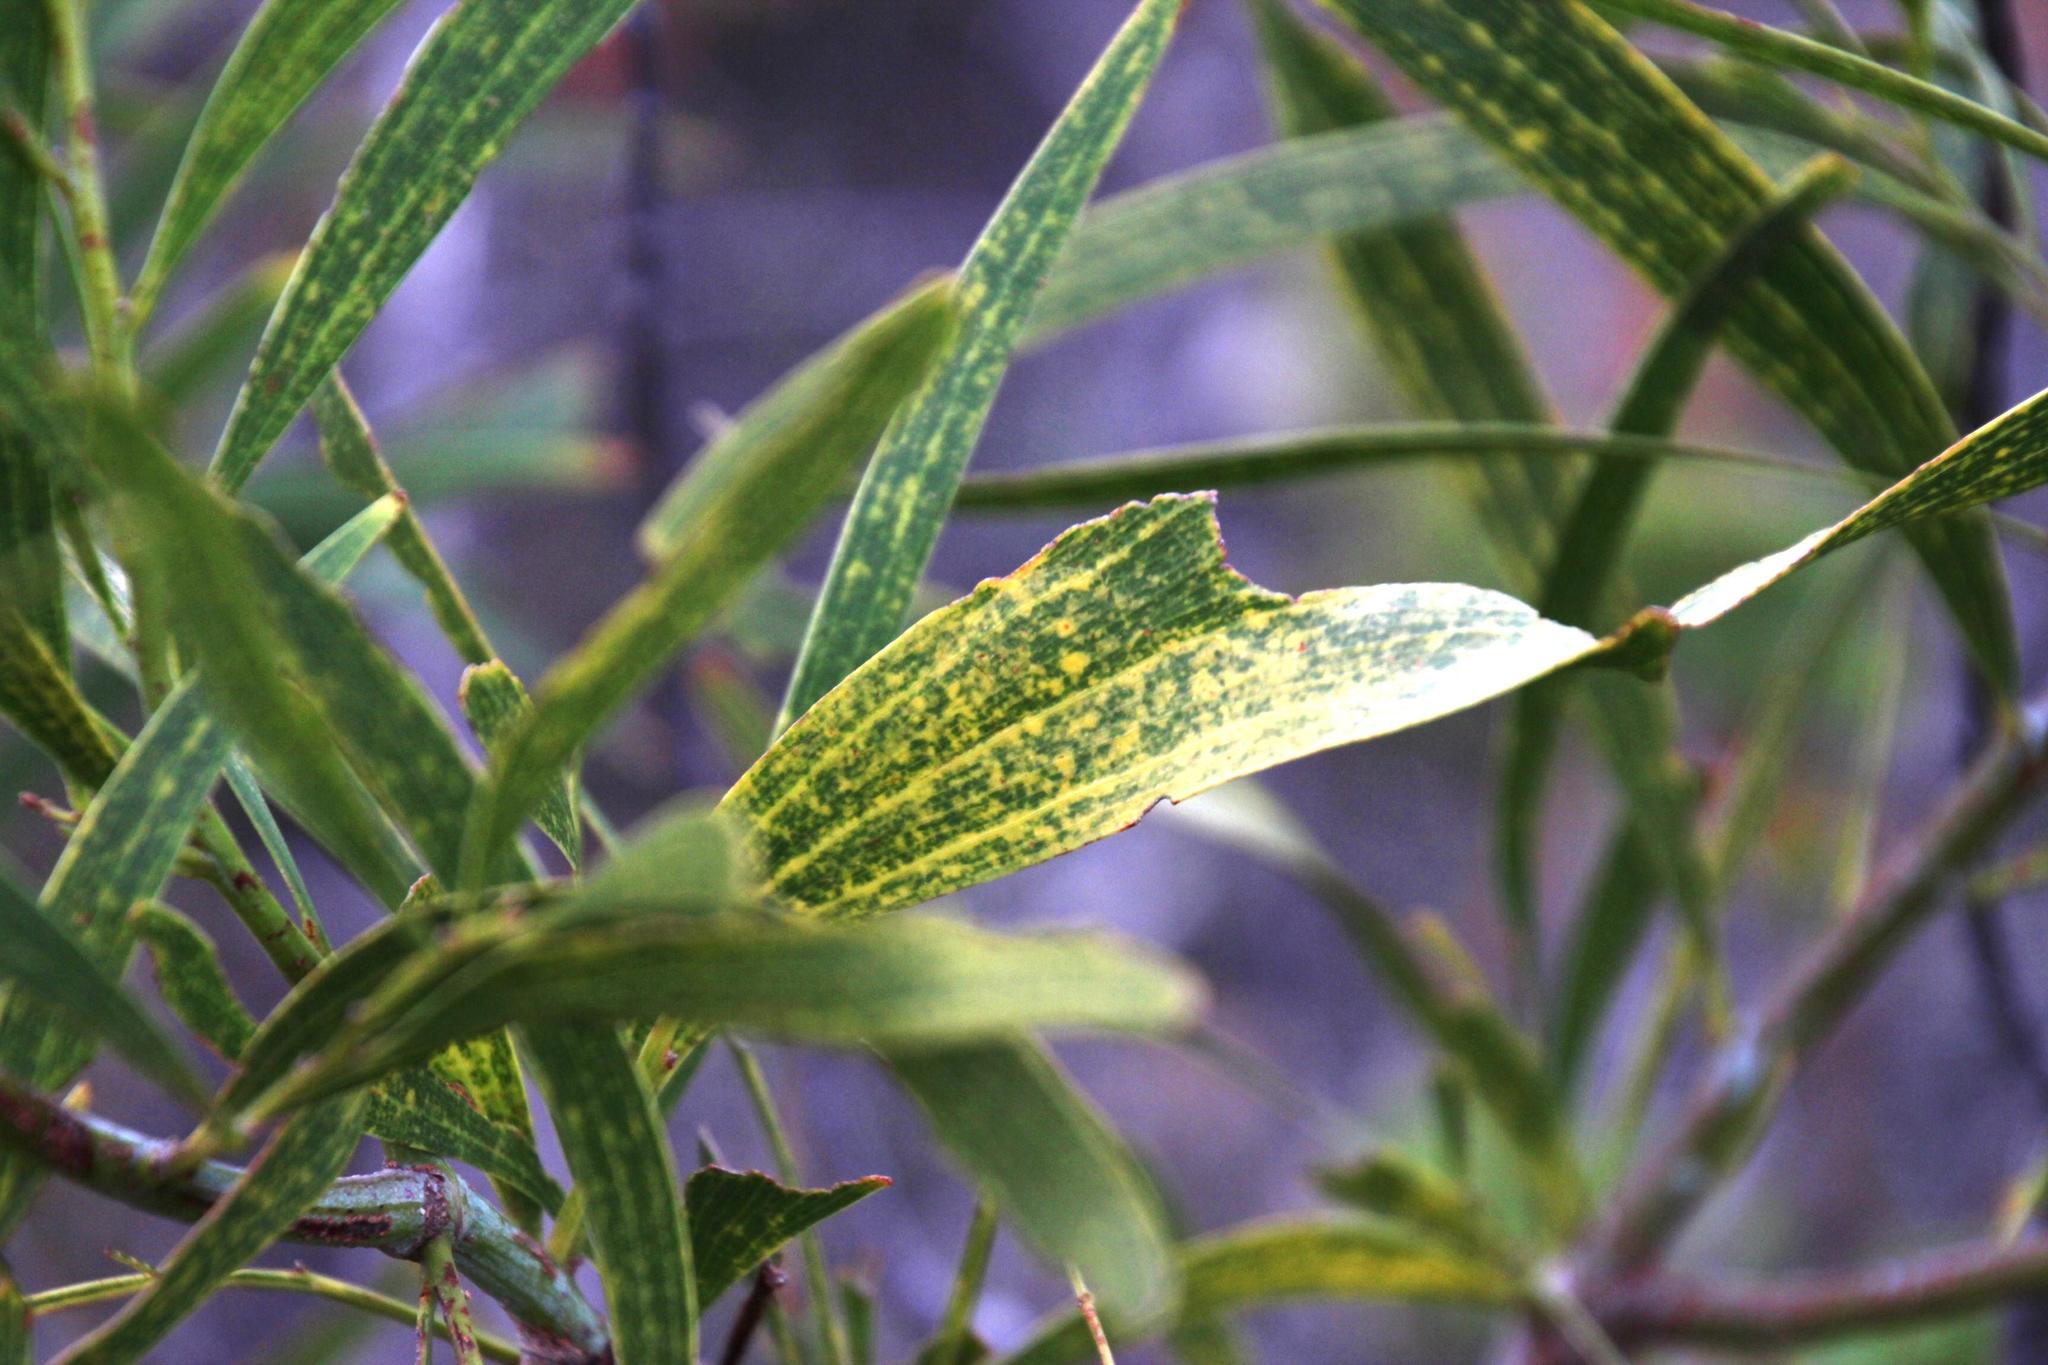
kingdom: Plantae
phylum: Tracheophyta
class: Magnoliopsida
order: Fabales
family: Fabaceae
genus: Acacia
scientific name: Acacia saligna
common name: Orange wattle
